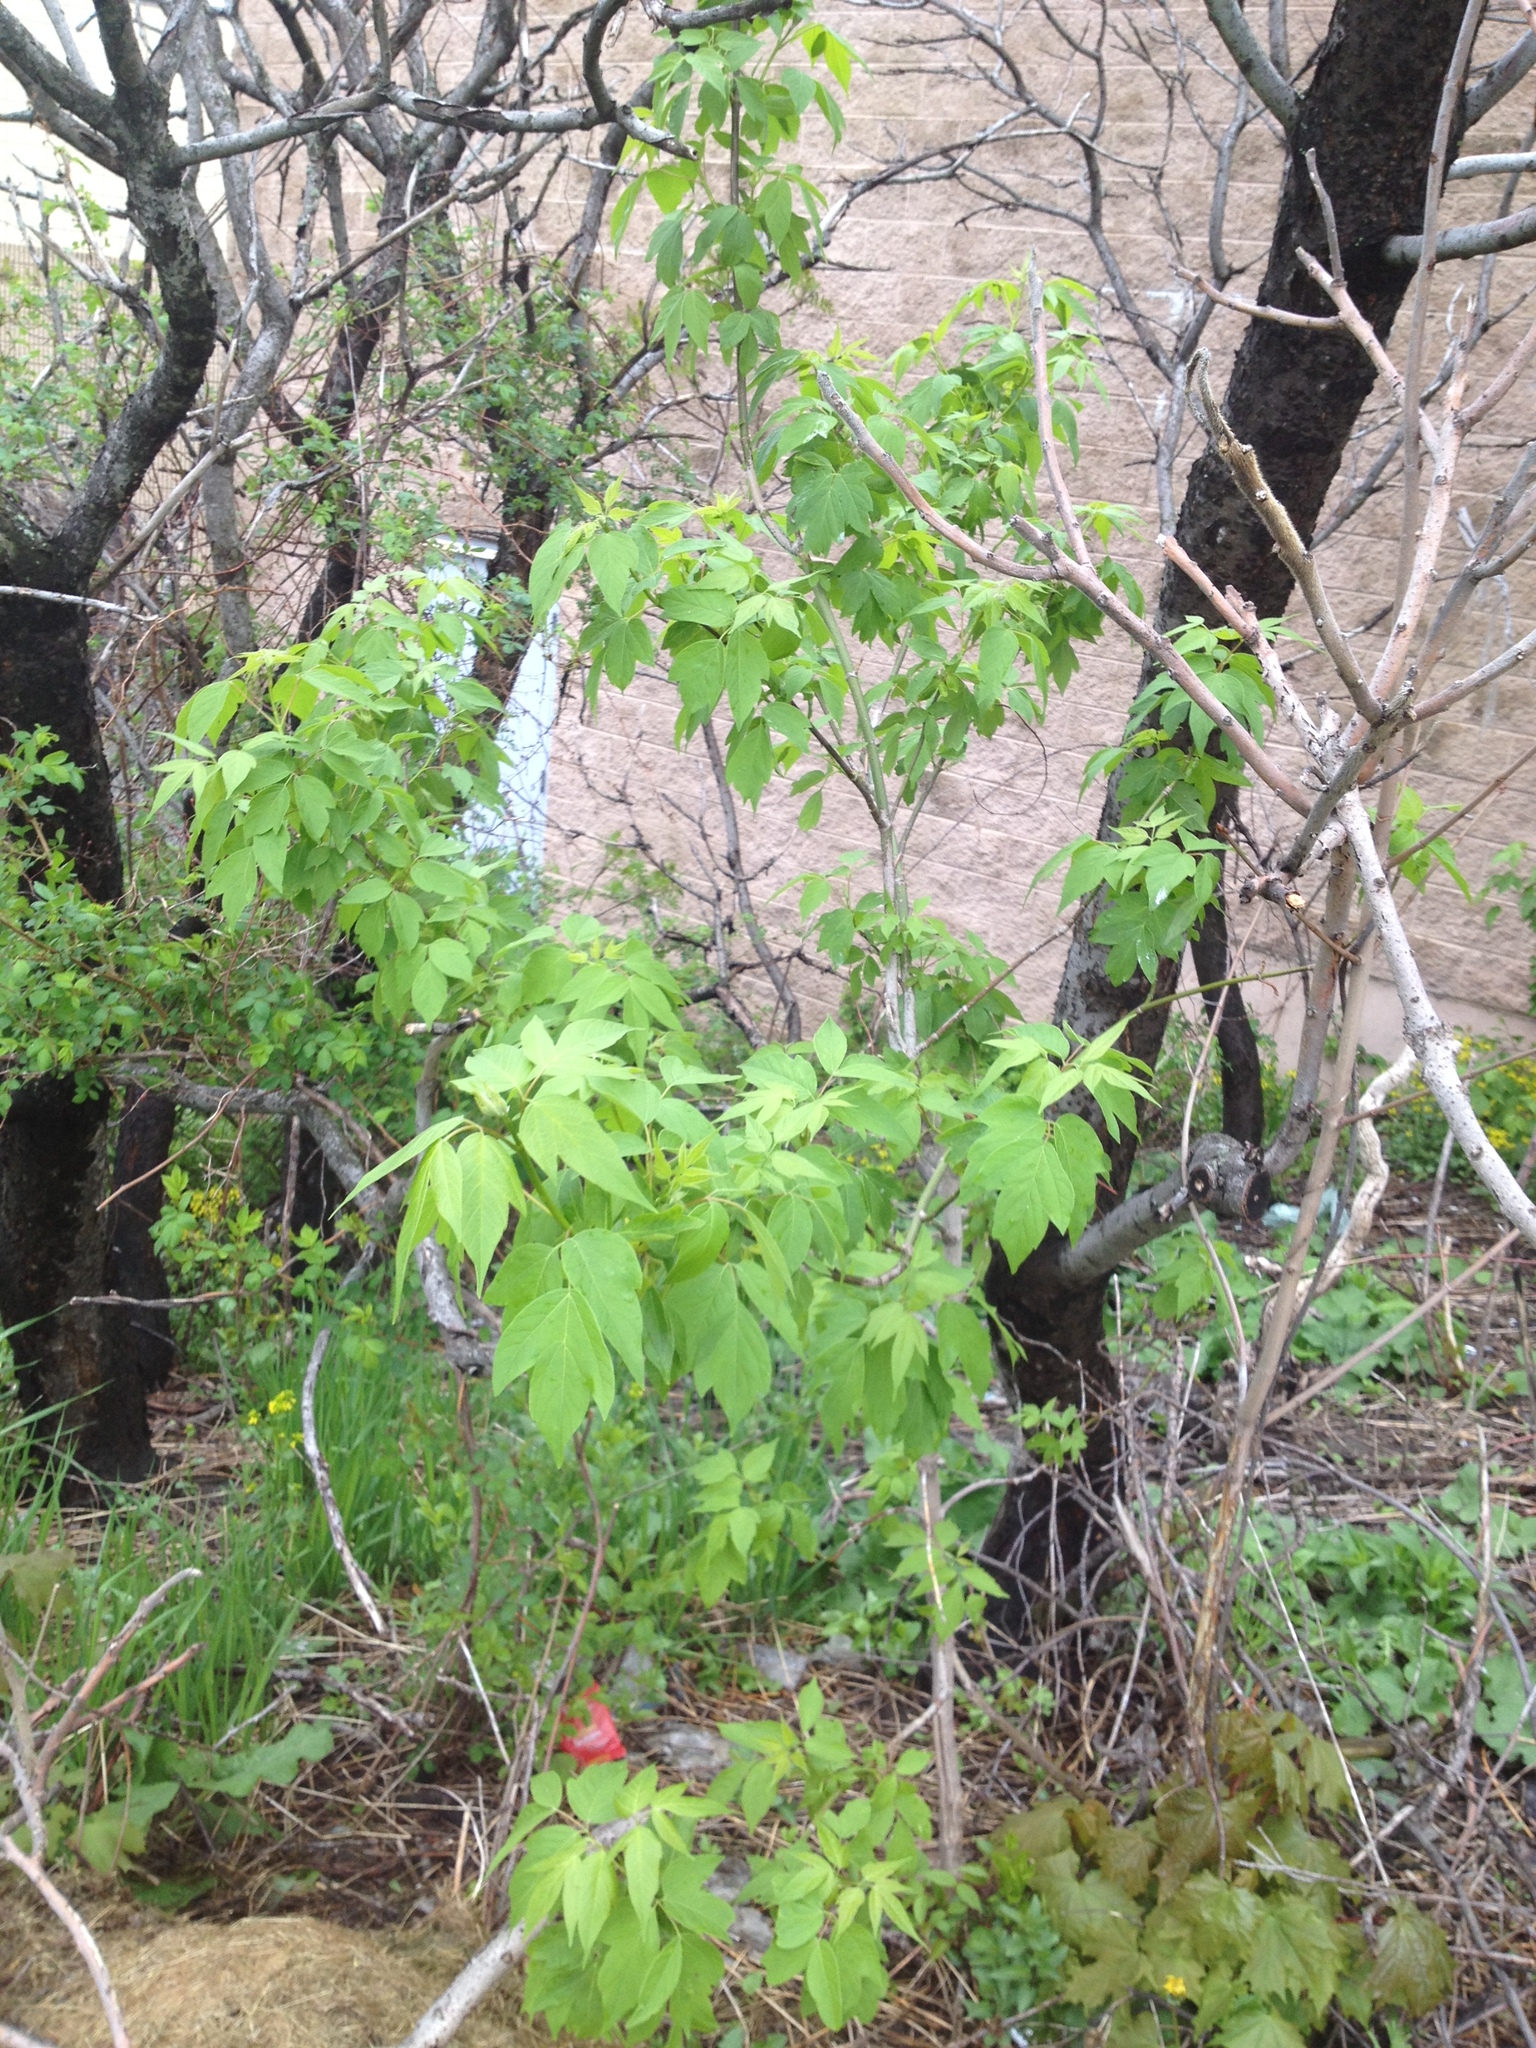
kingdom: Plantae
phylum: Tracheophyta
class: Magnoliopsida
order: Sapindales
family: Sapindaceae
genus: Acer
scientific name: Acer negundo
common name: Ashleaf maple
